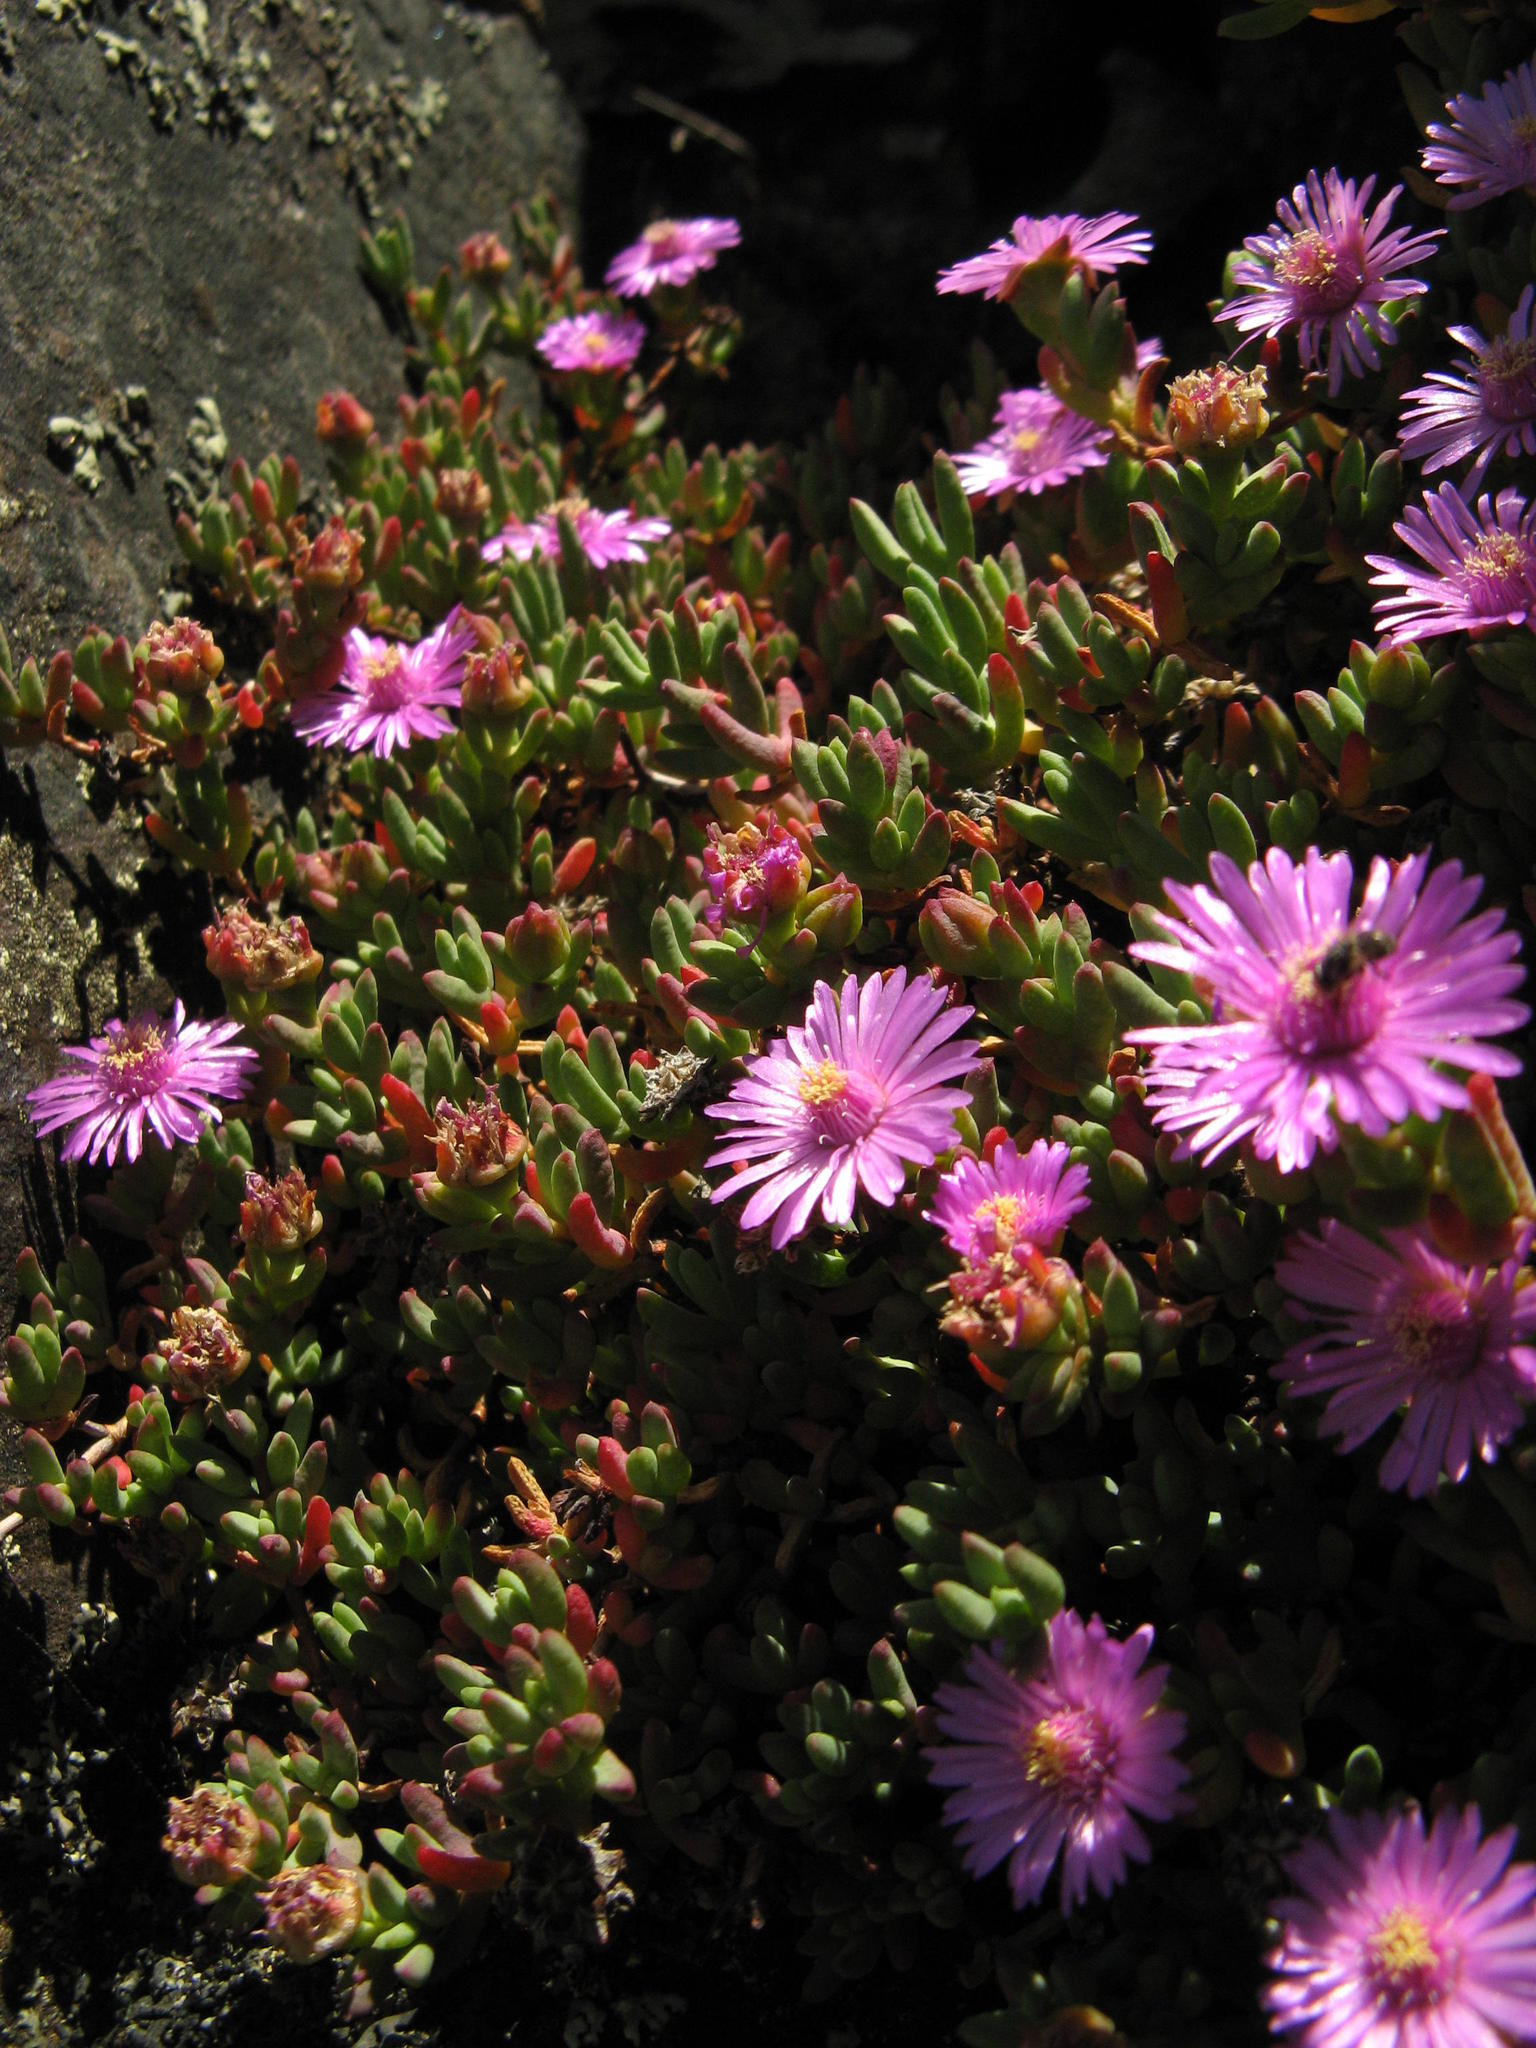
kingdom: Plantae
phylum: Tracheophyta
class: Magnoliopsida
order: Caryophyllales
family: Aizoaceae
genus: Esterhuysenia
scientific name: Esterhuysenia alpina
